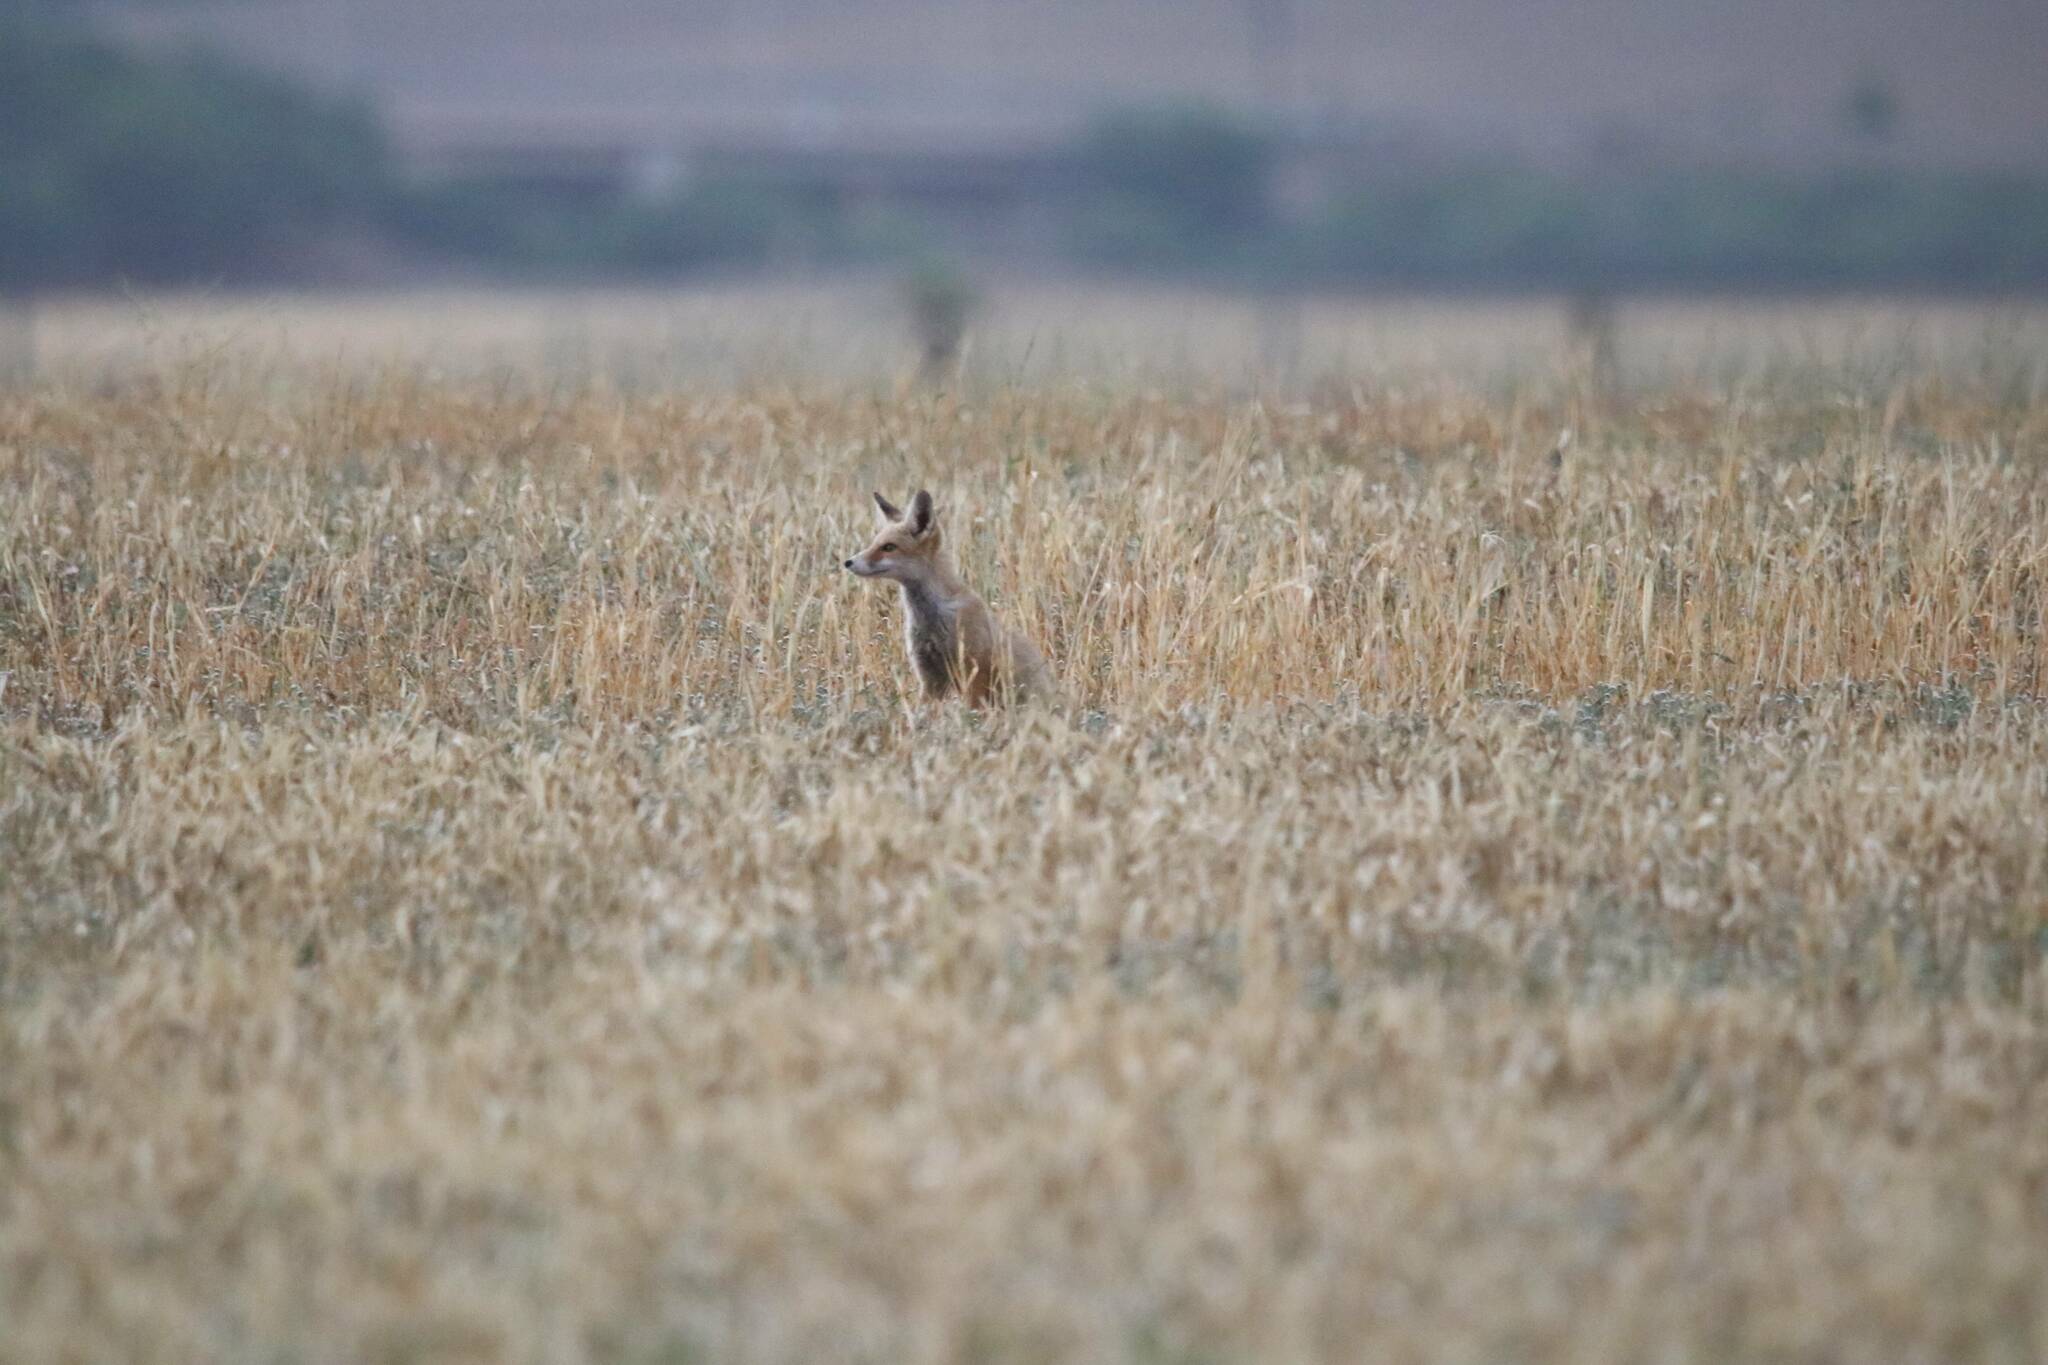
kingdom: Animalia
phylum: Chordata
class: Mammalia
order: Carnivora
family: Canidae
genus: Vulpes
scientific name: Vulpes vulpes
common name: Red fox
